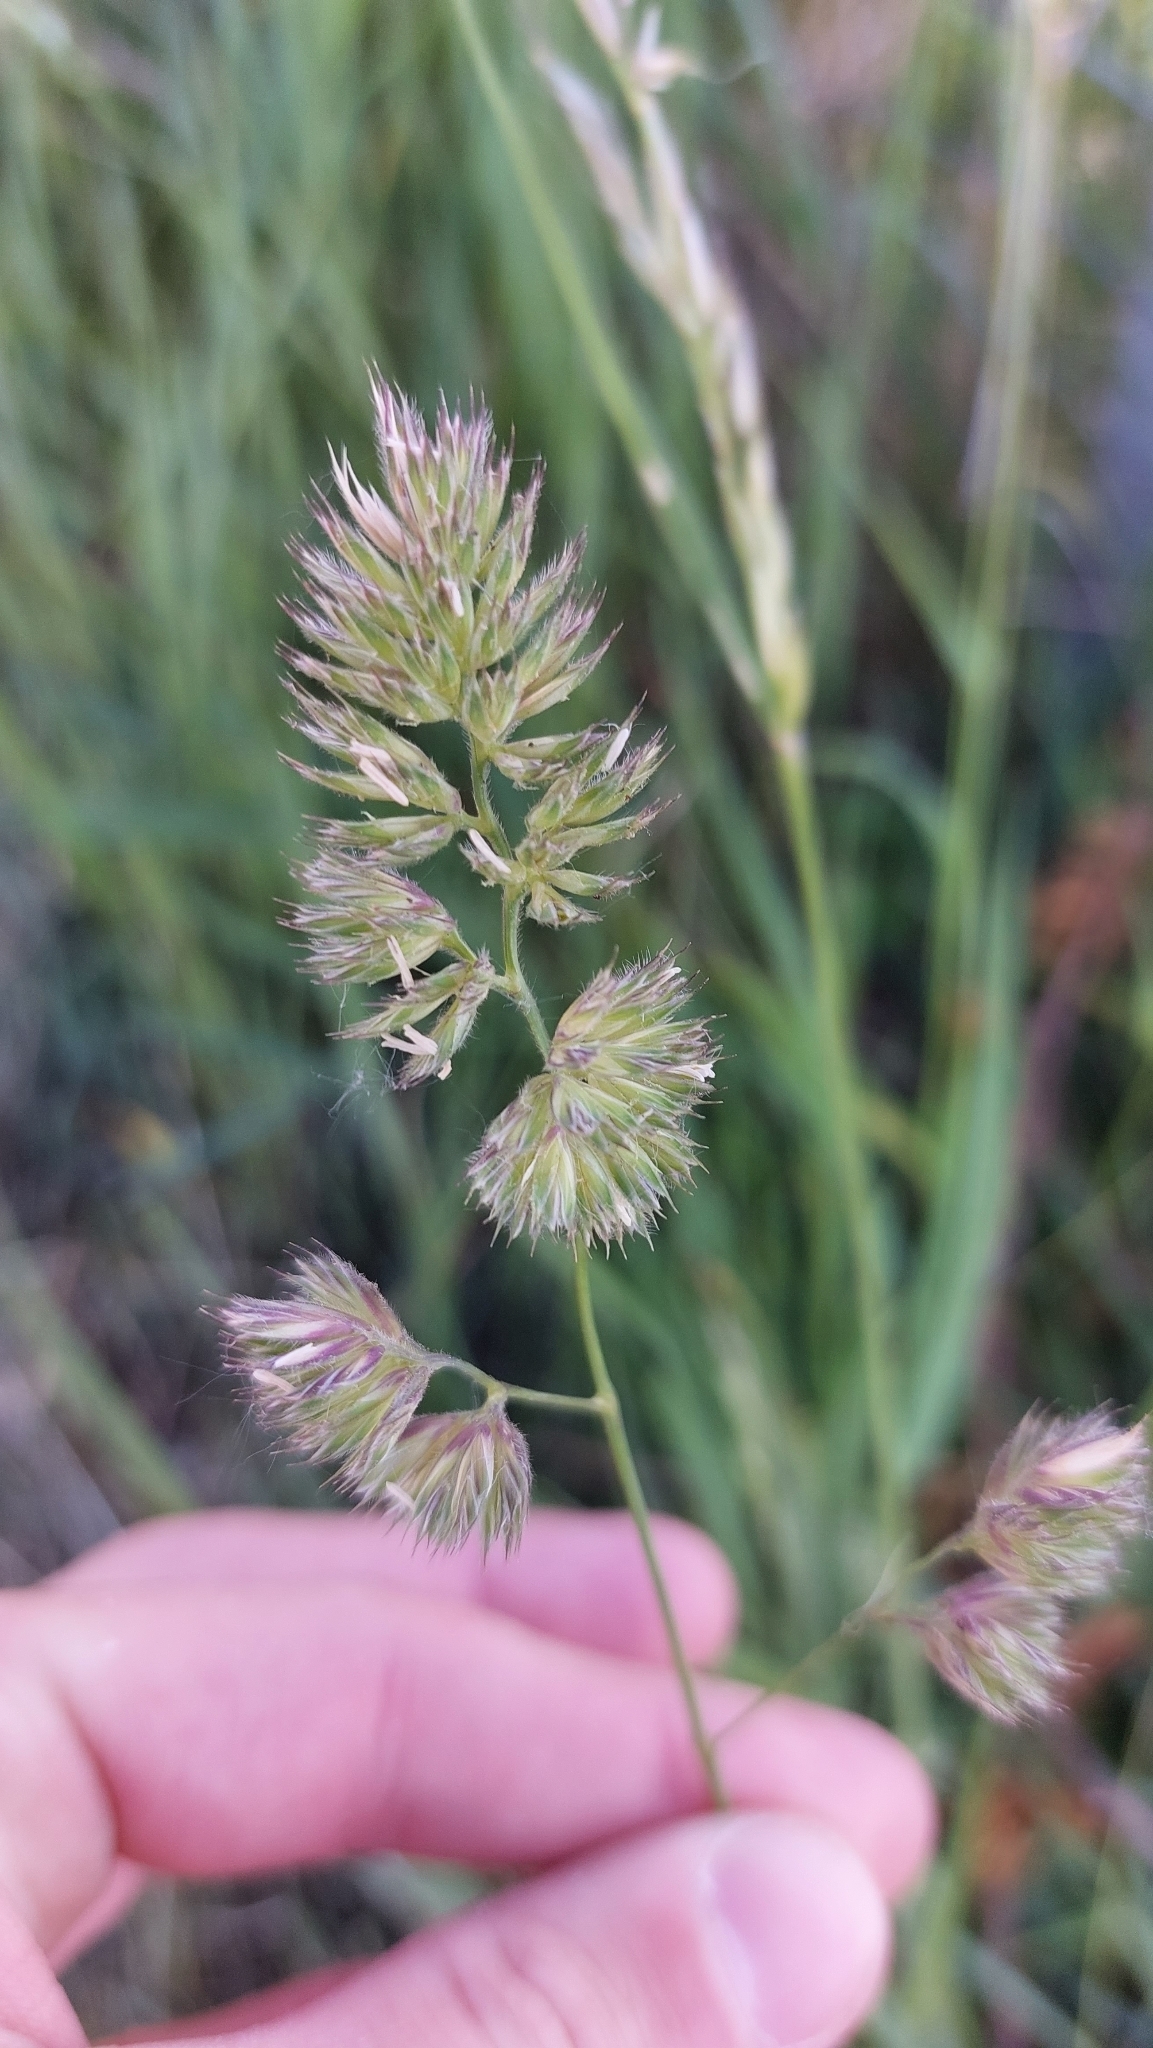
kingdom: Plantae
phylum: Tracheophyta
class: Liliopsida
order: Poales
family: Poaceae
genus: Dactylis
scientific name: Dactylis glomerata
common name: Orchardgrass
